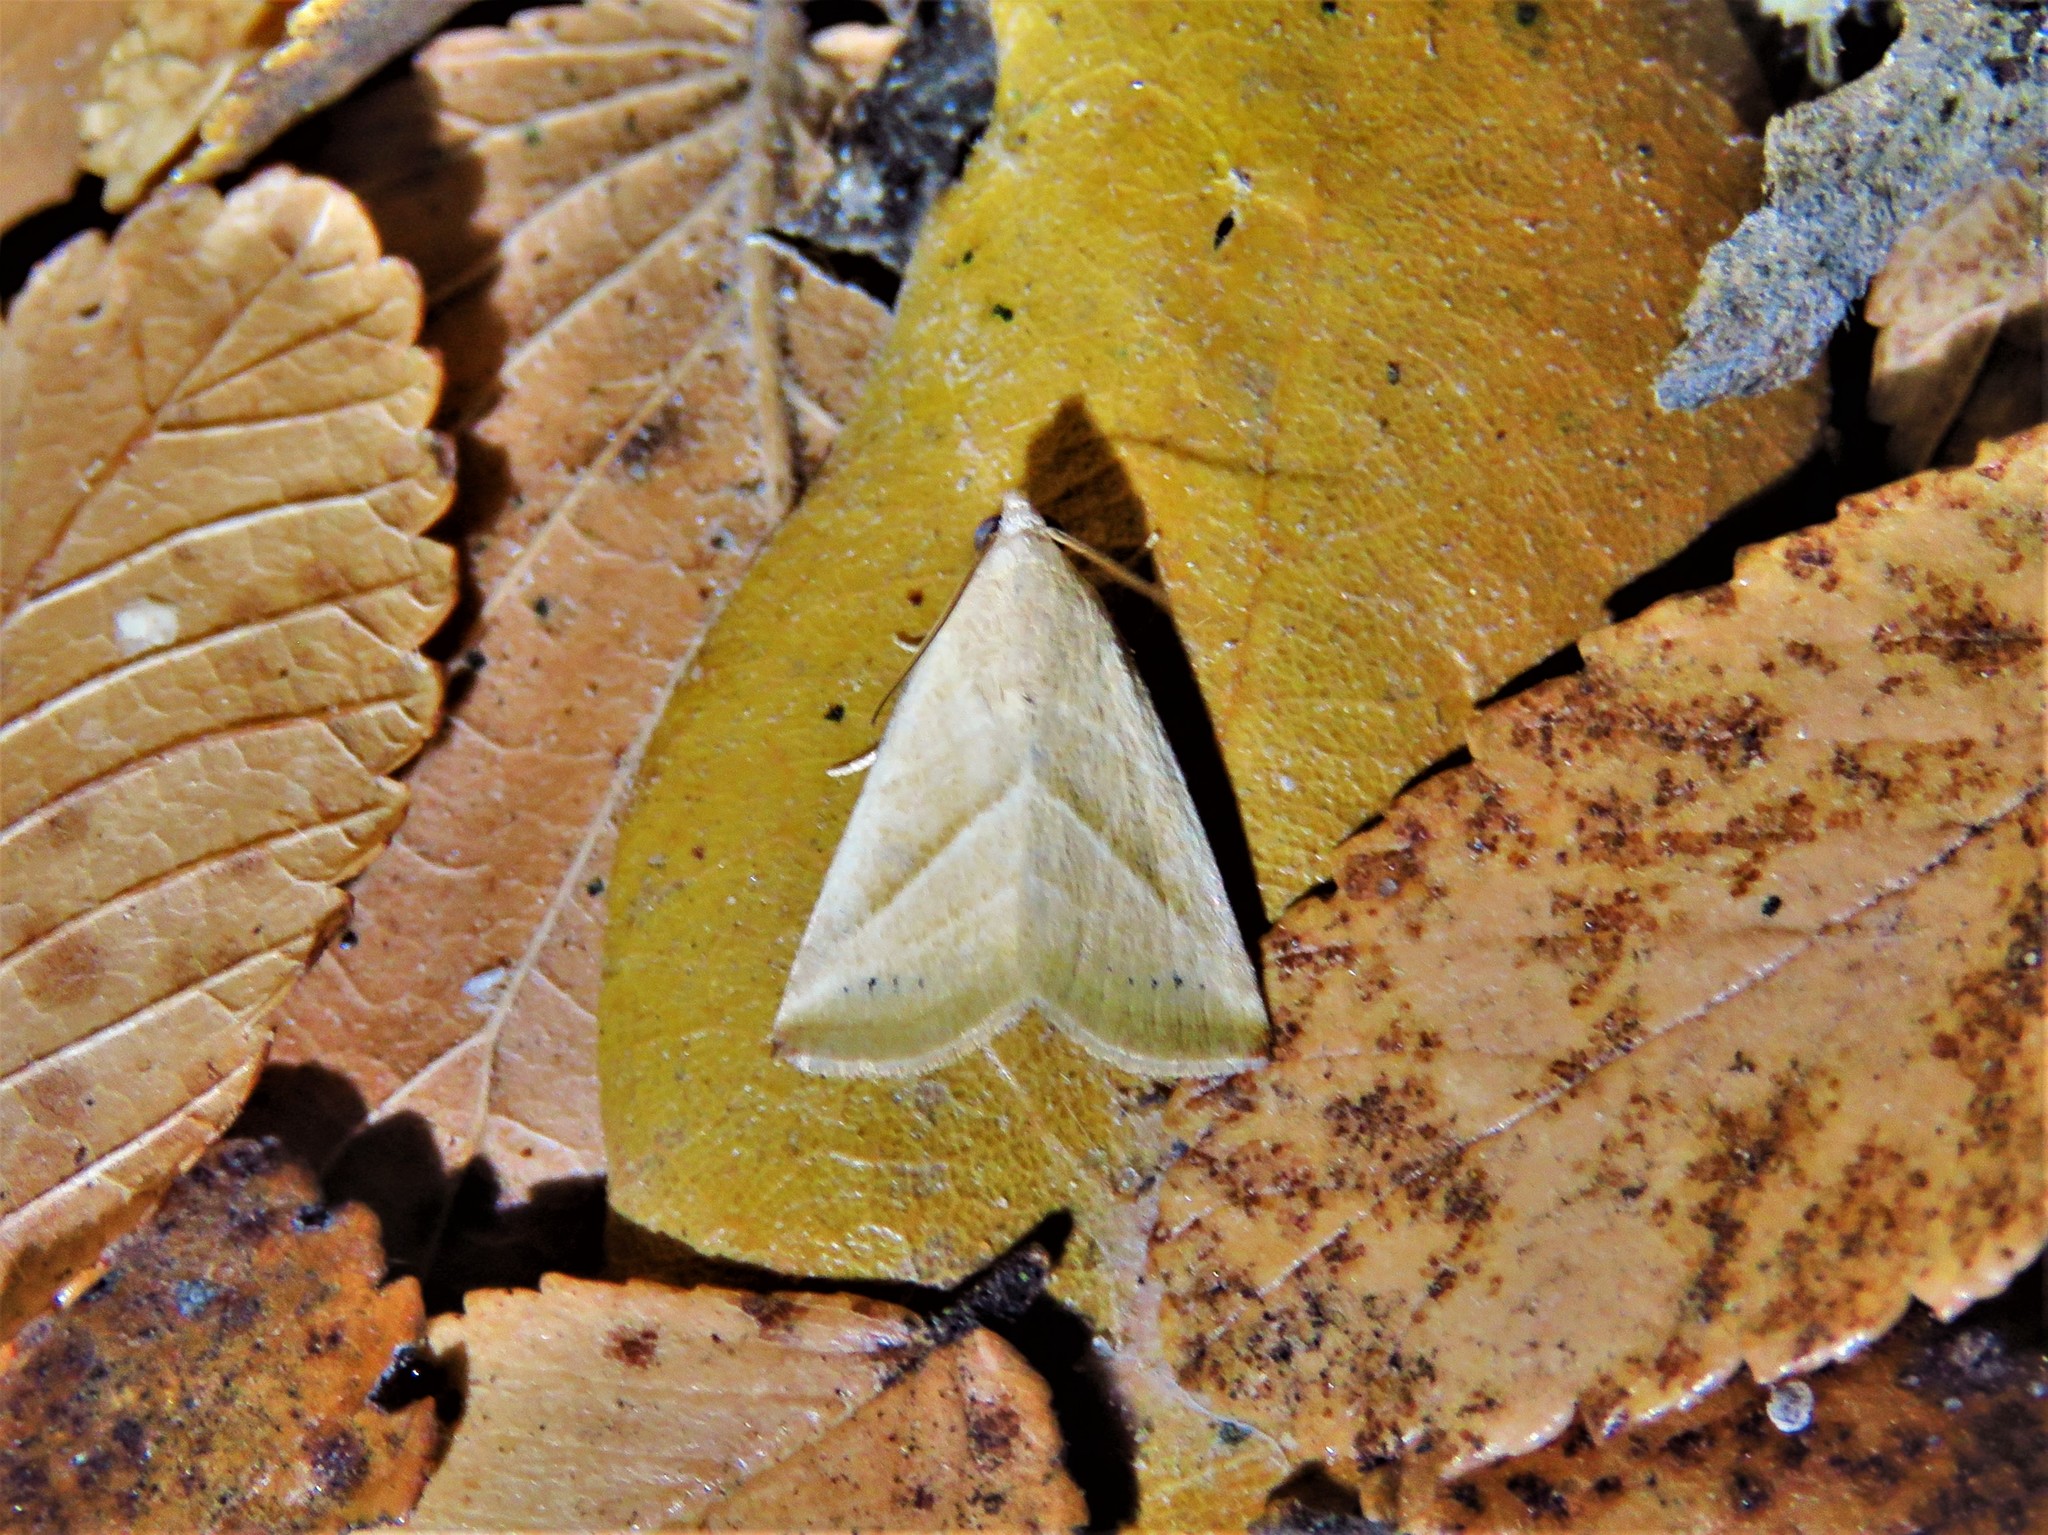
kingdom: Animalia
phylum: Arthropoda
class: Insecta
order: Lepidoptera
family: Noctuidae
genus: Eublemma
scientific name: Eublemma recta
